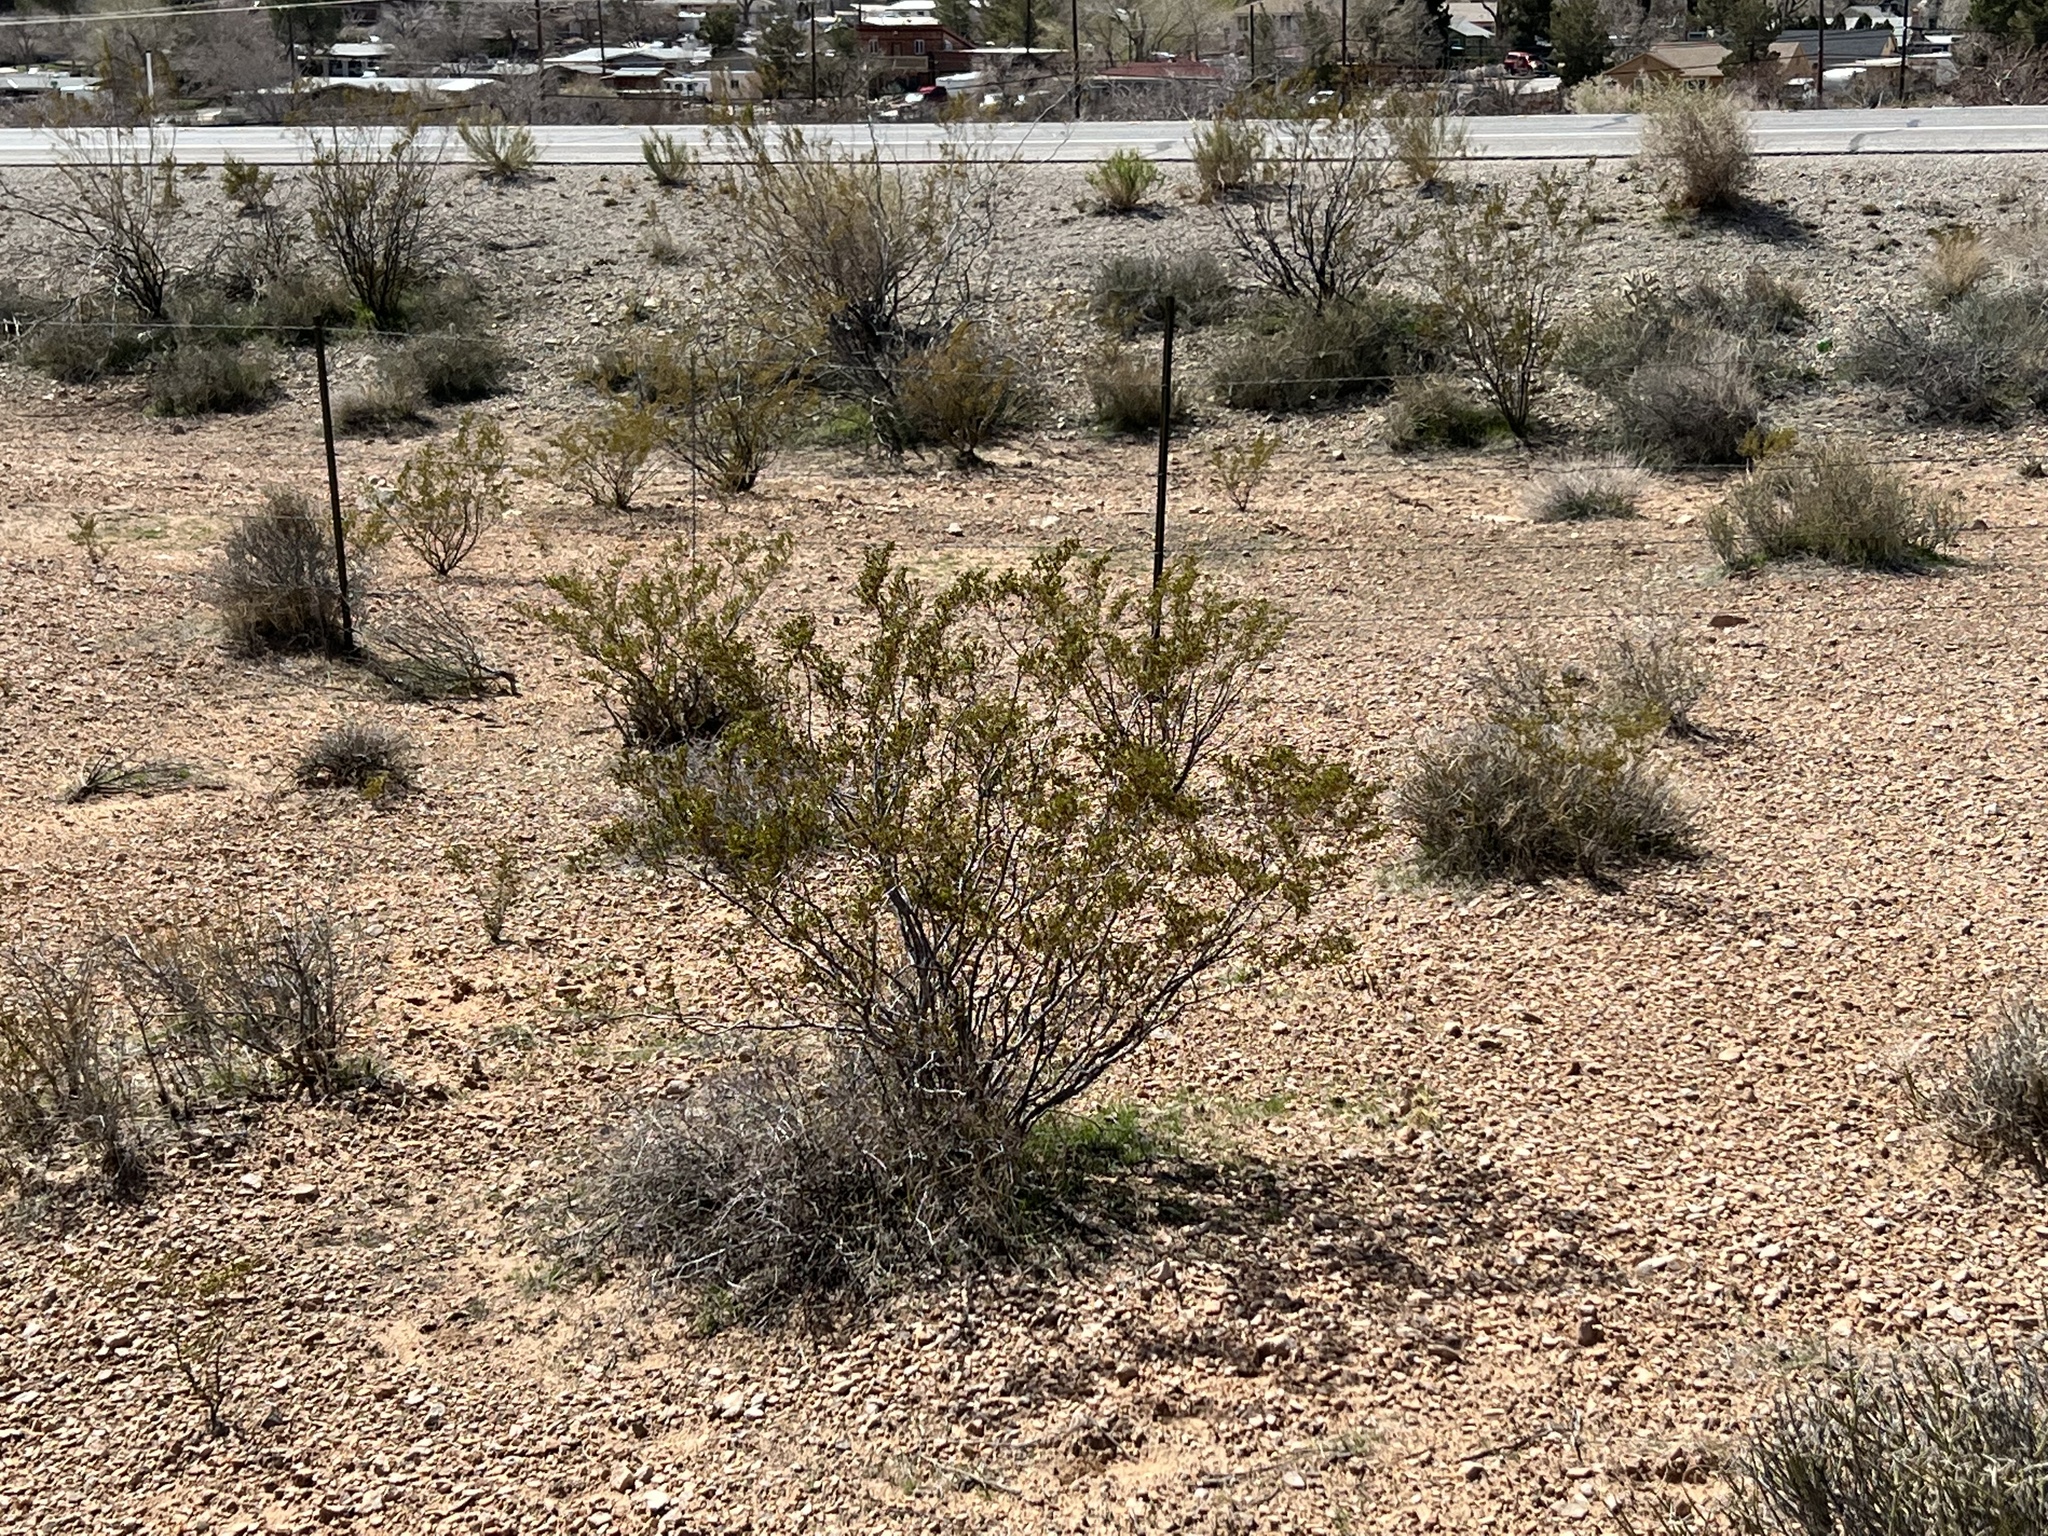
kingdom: Plantae
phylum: Tracheophyta
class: Magnoliopsida
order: Zygophyllales
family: Zygophyllaceae
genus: Larrea
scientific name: Larrea tridentata
